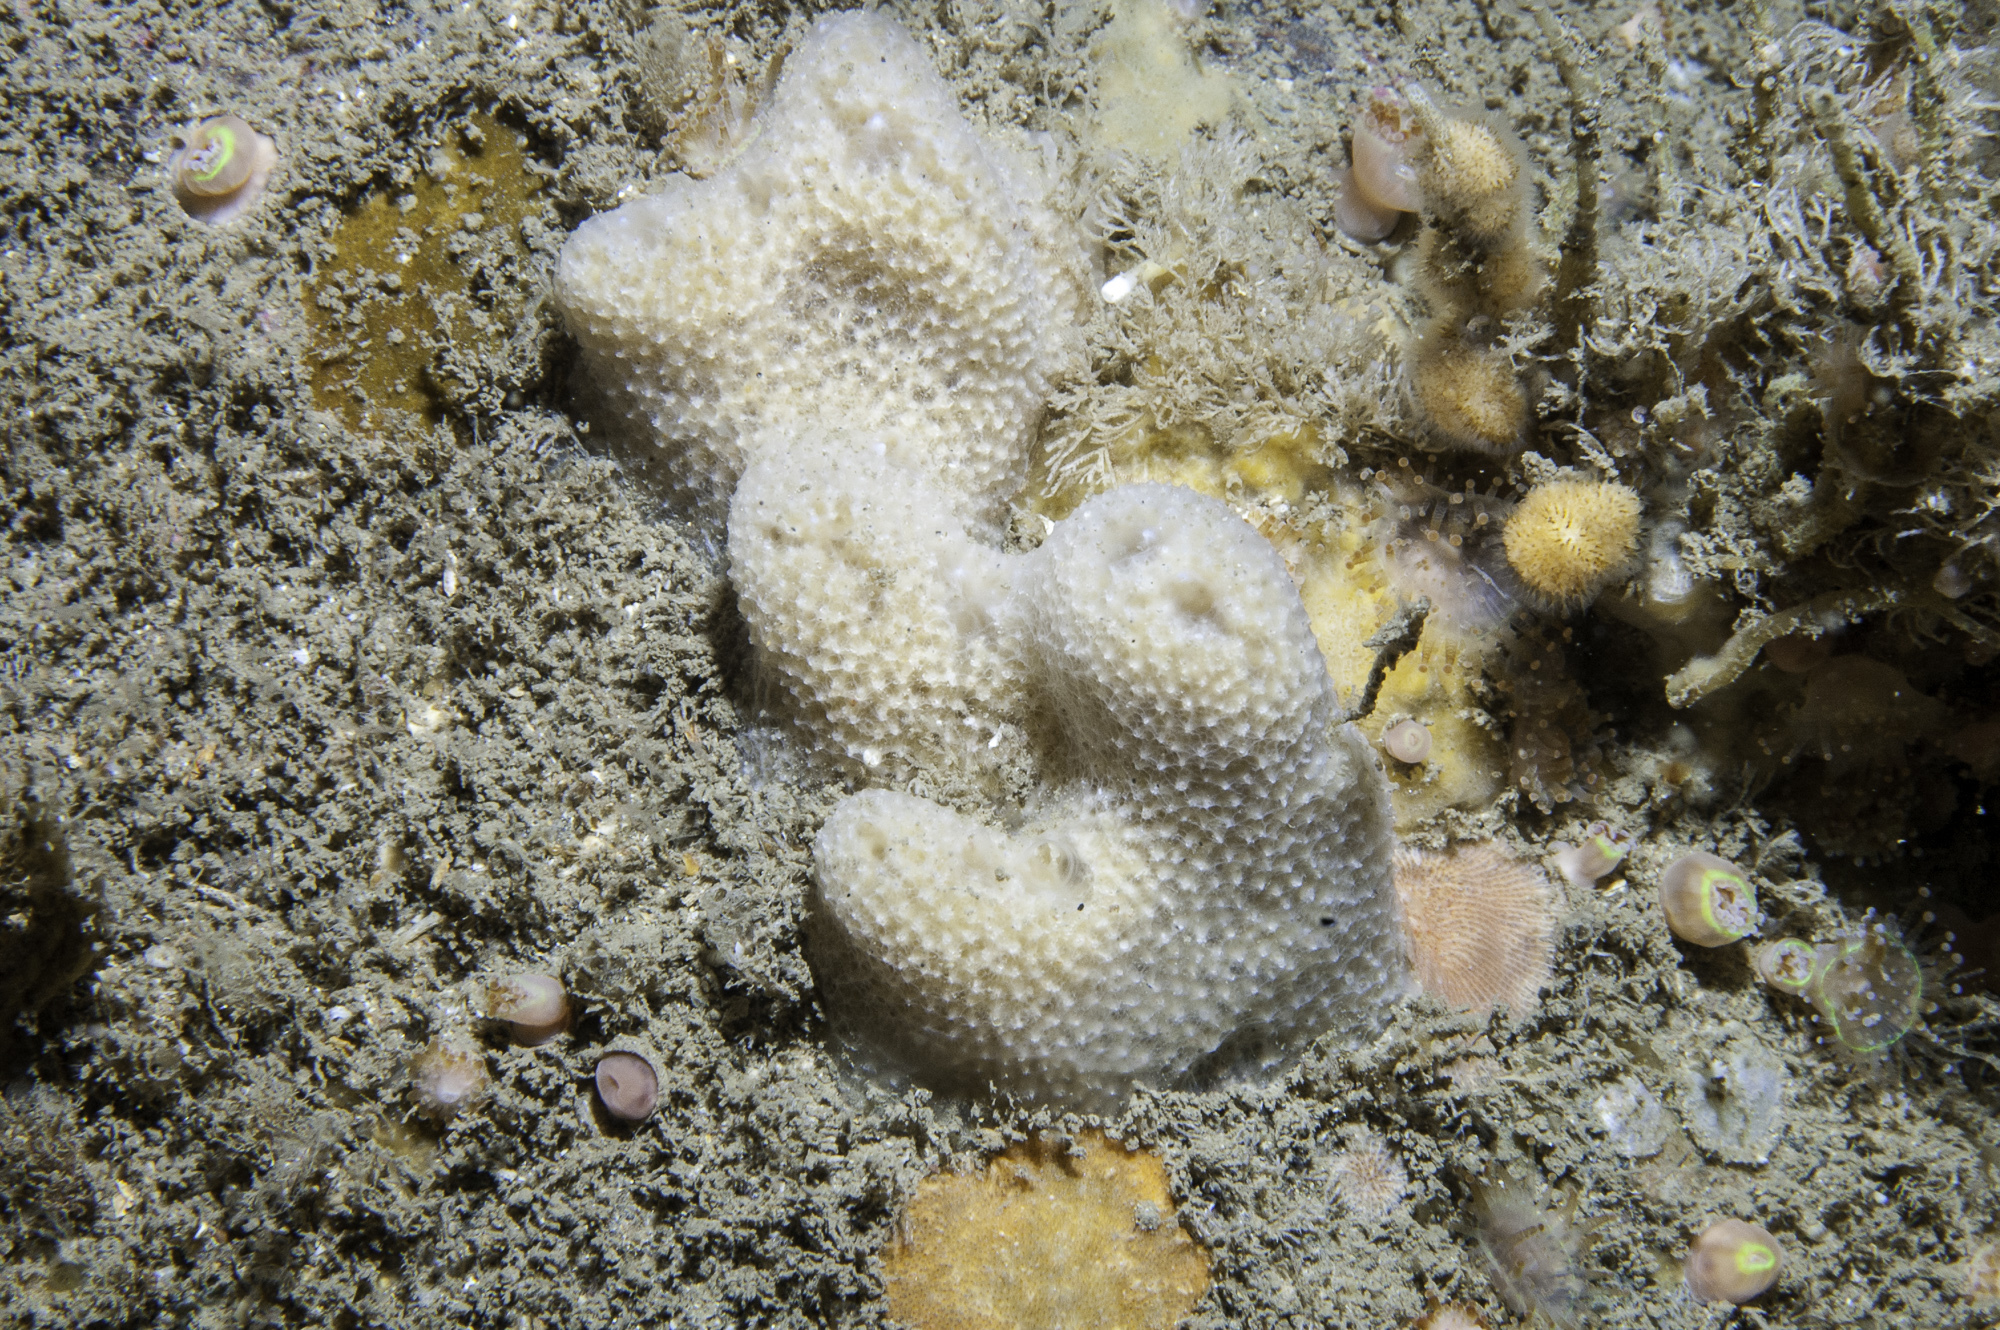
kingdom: Animalia
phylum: Porifera
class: Demospongiae
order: Dictyoceratida
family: Dysideidae
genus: Dysidea
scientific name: Dysidea fragilis
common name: Goosebump sponge
